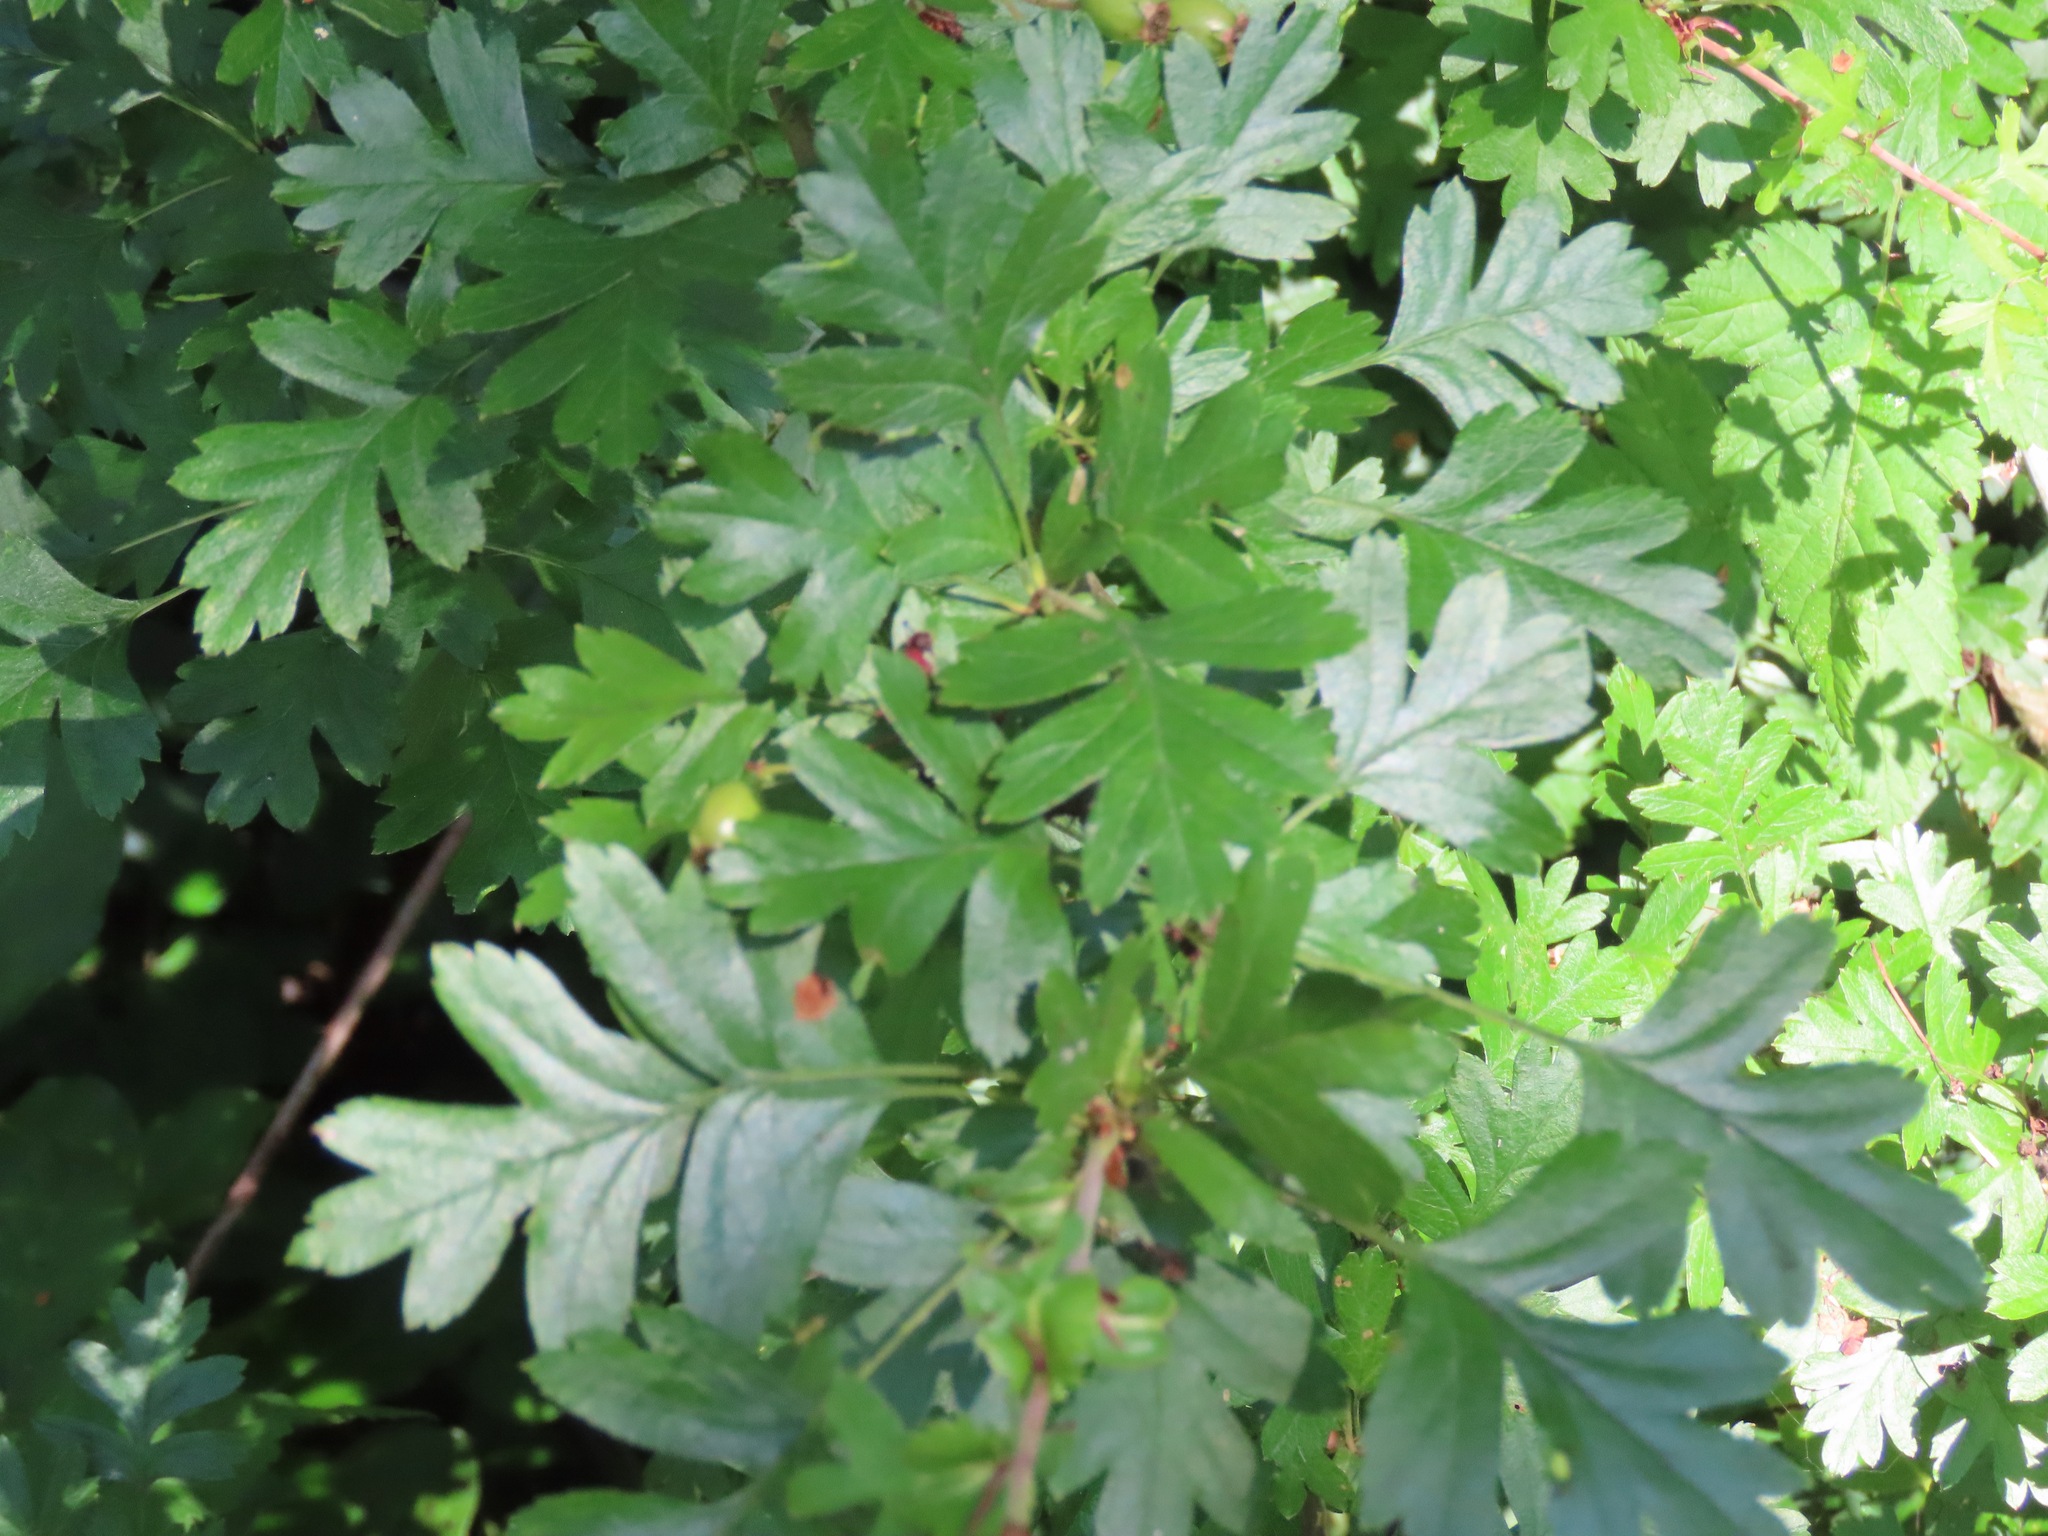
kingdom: Plantae
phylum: Tracheophyta
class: Magnoliopsida
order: Rosales
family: Rosaceae
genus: Crataegus
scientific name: Crataegus monogyna
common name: Hawthorn
